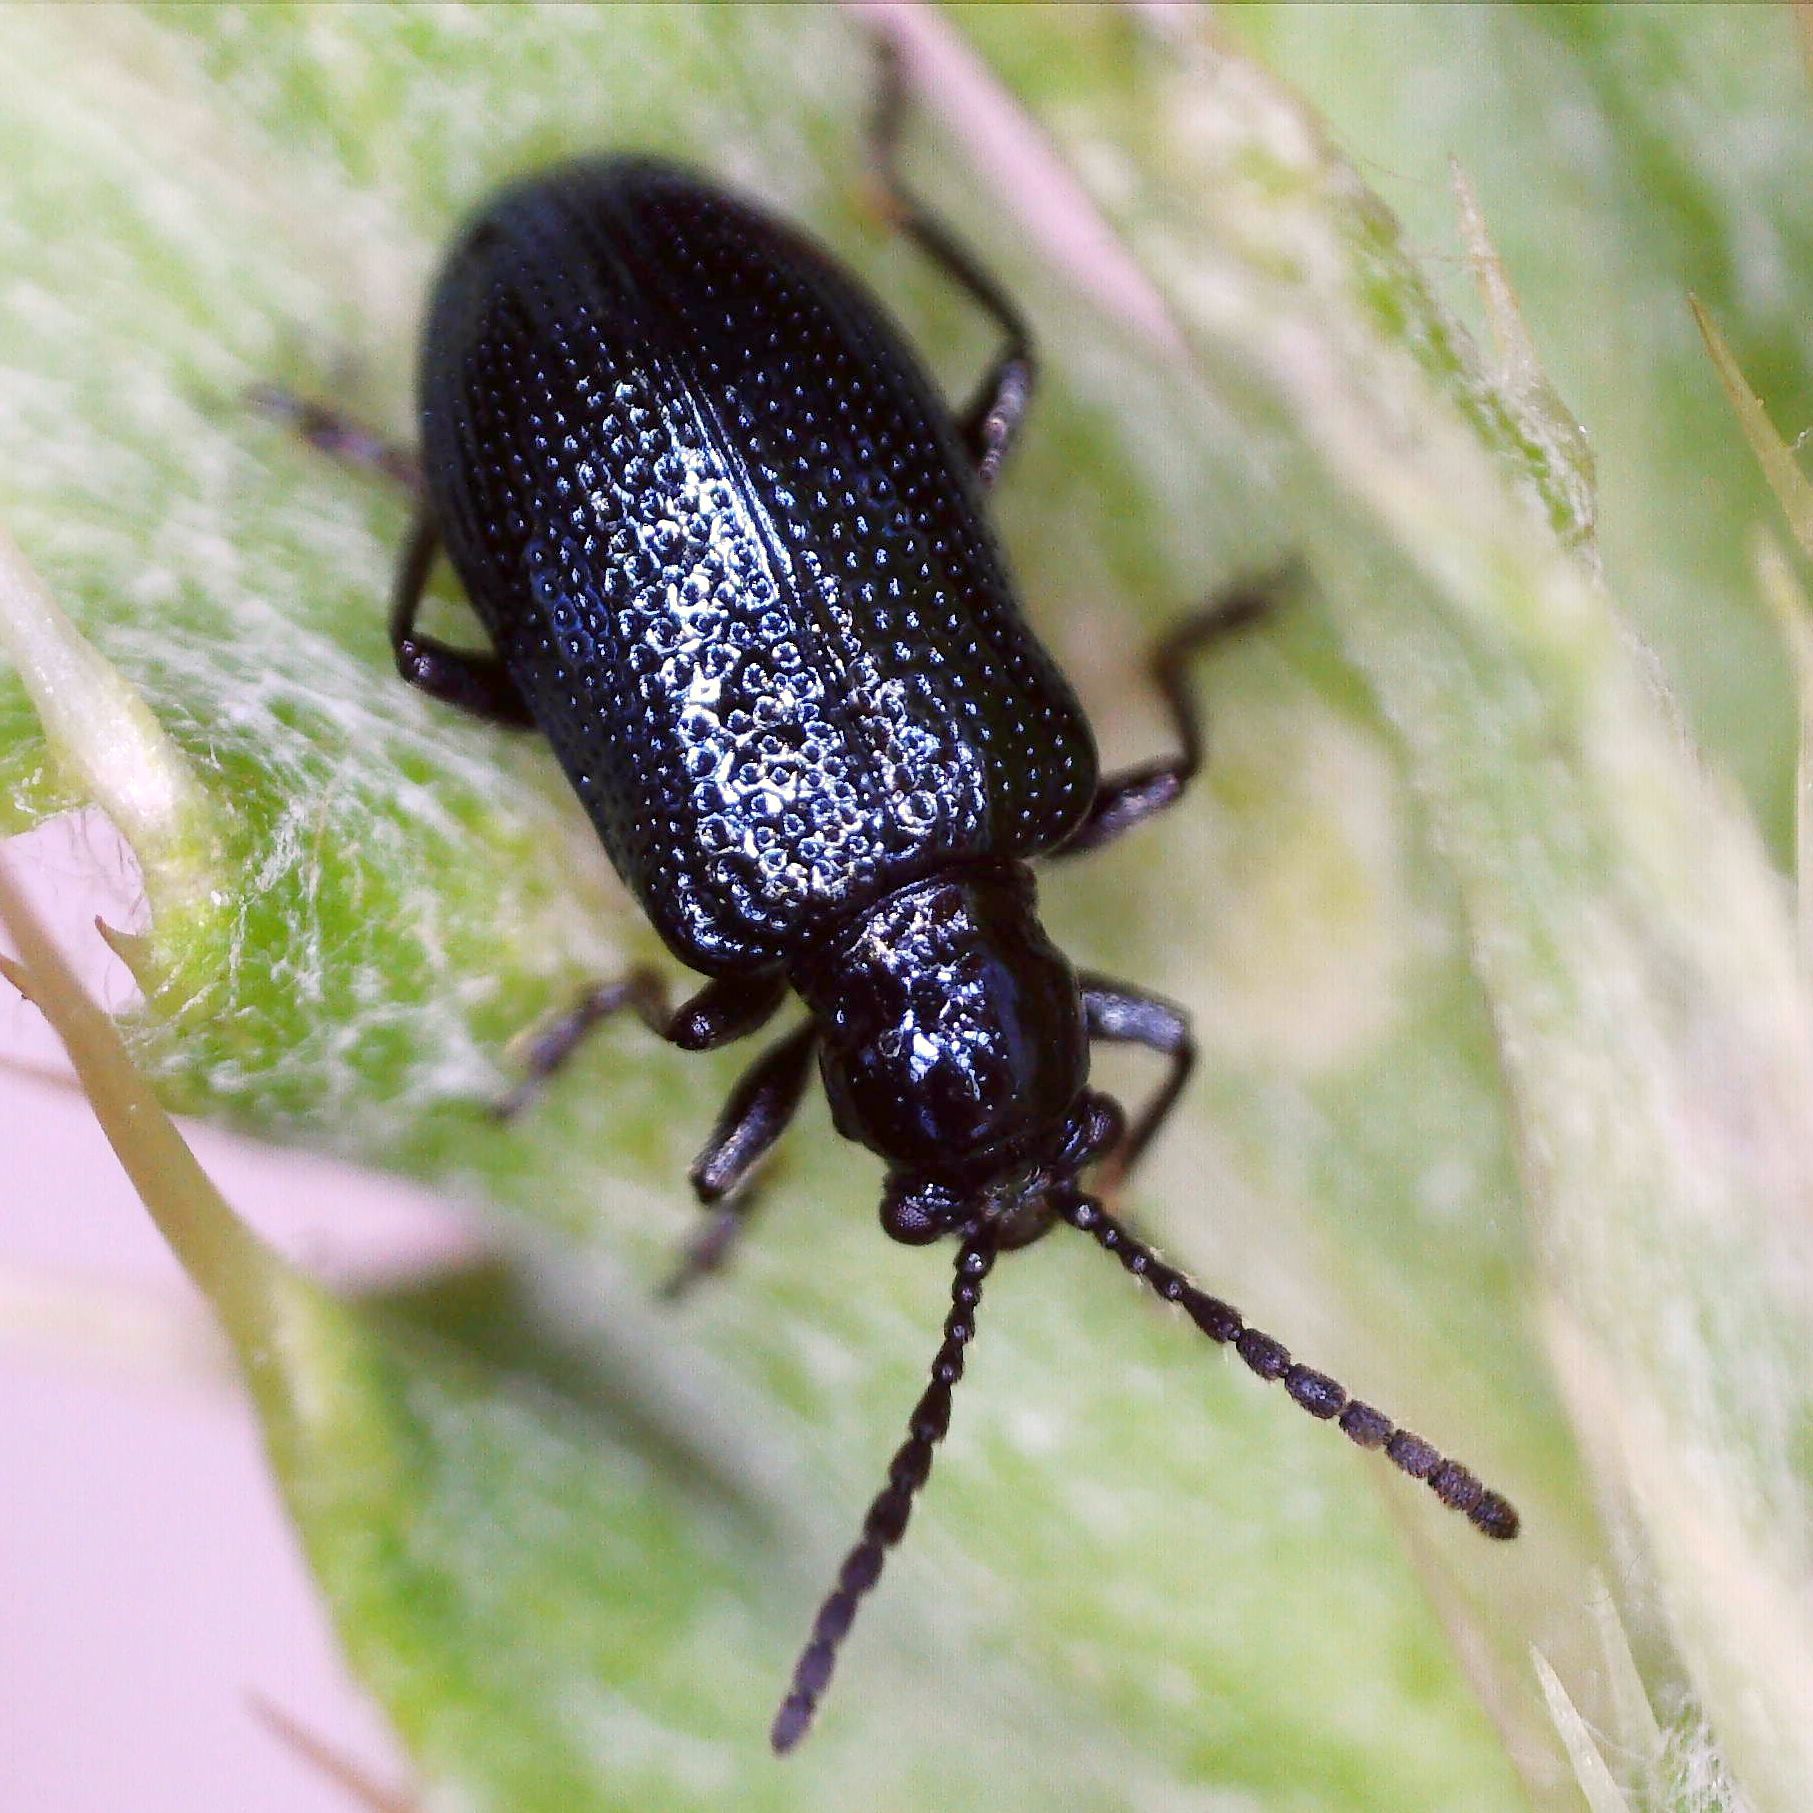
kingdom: Animalia
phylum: Arthropoda
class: Insecta
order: Coleoptera
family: Chrysomelidae
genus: Oulema
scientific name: Oulema gallaeciana
